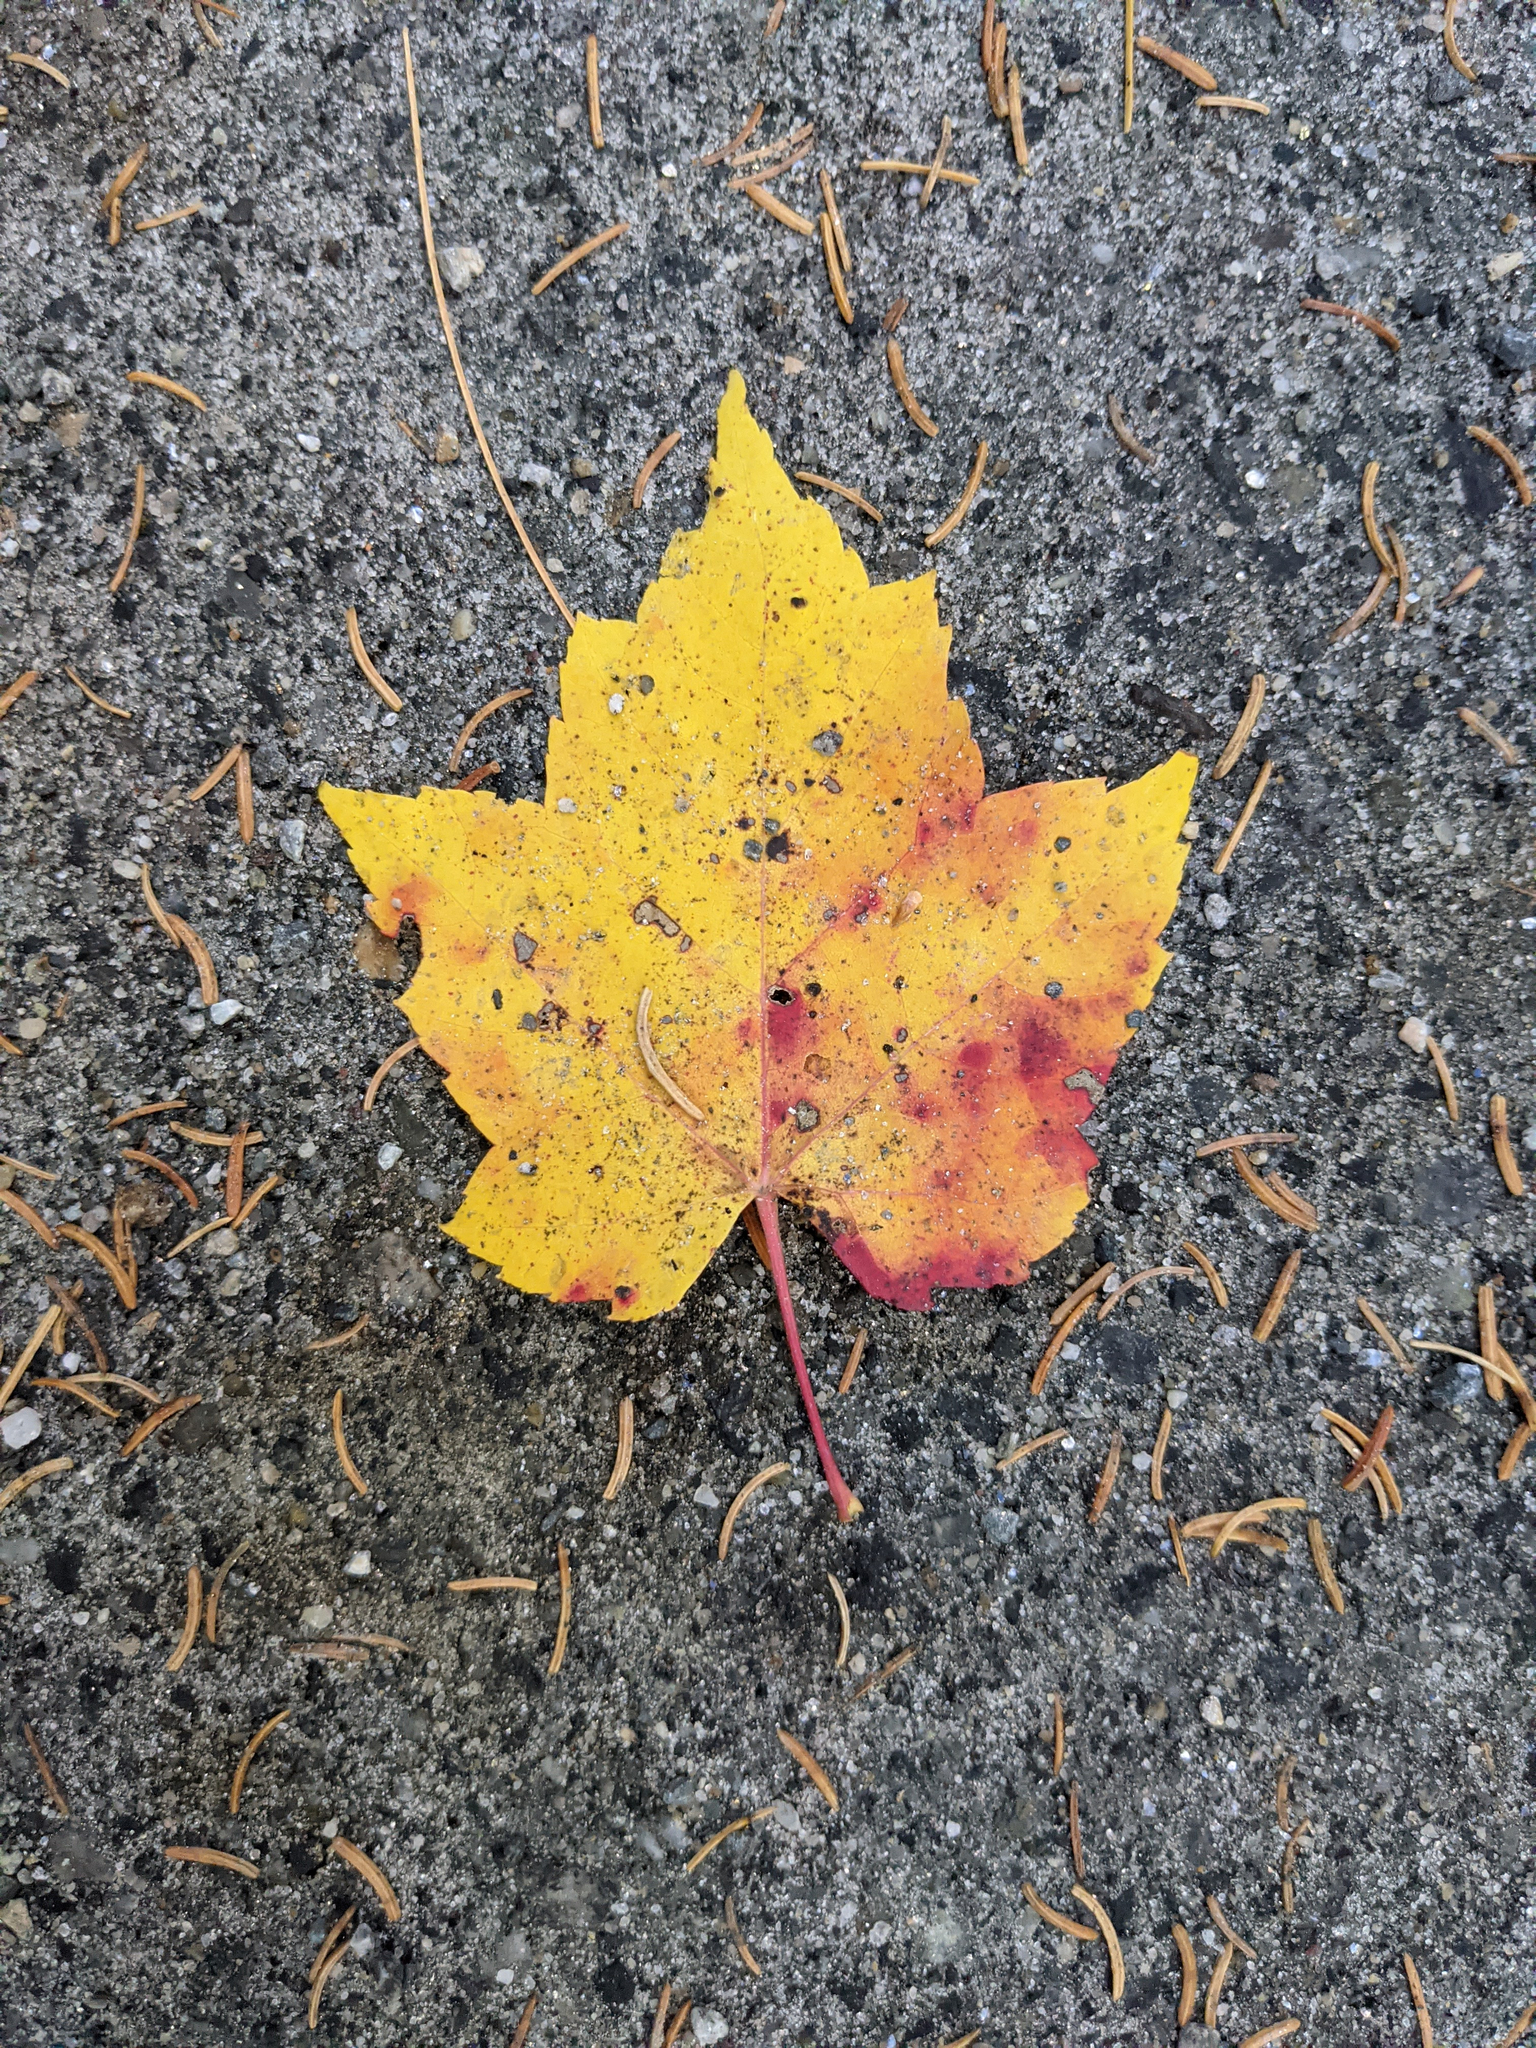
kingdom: Plantae
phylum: Tracheophyta
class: Magnoliopsida
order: Sapindales
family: Sapindaceae
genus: Acer
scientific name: Acer rubrum
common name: Red maple
